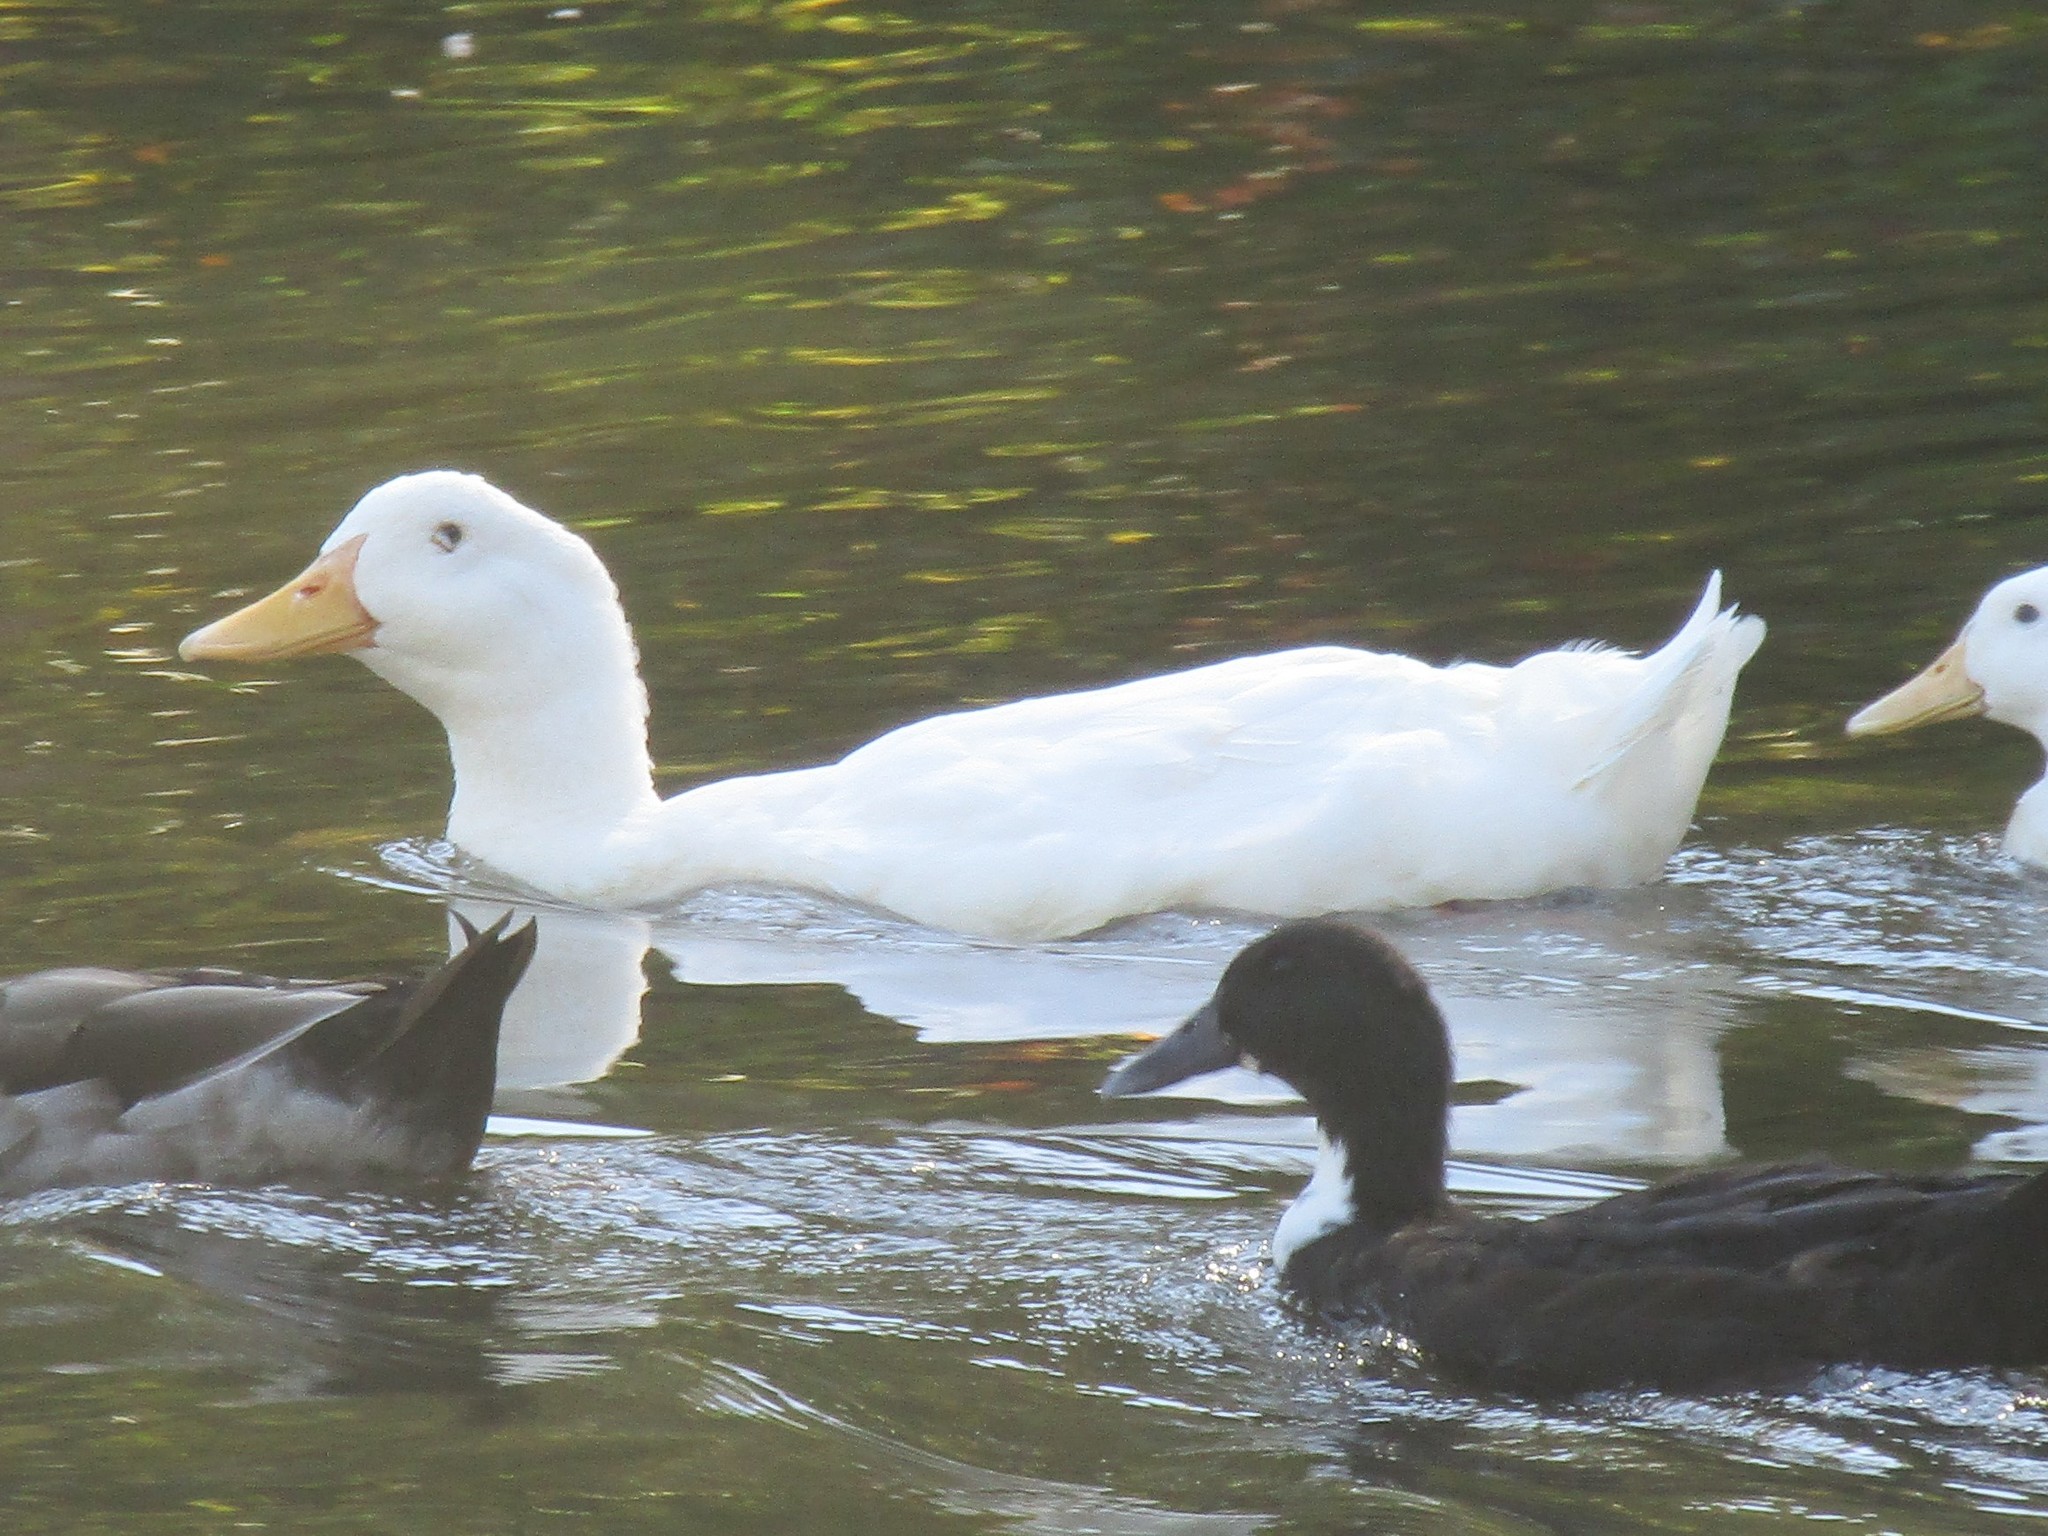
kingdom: Animalia
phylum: Chordata
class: Aves
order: Anseriformes
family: Anatidae
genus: Anas
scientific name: Anas platyrhynchos
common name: Mallard
